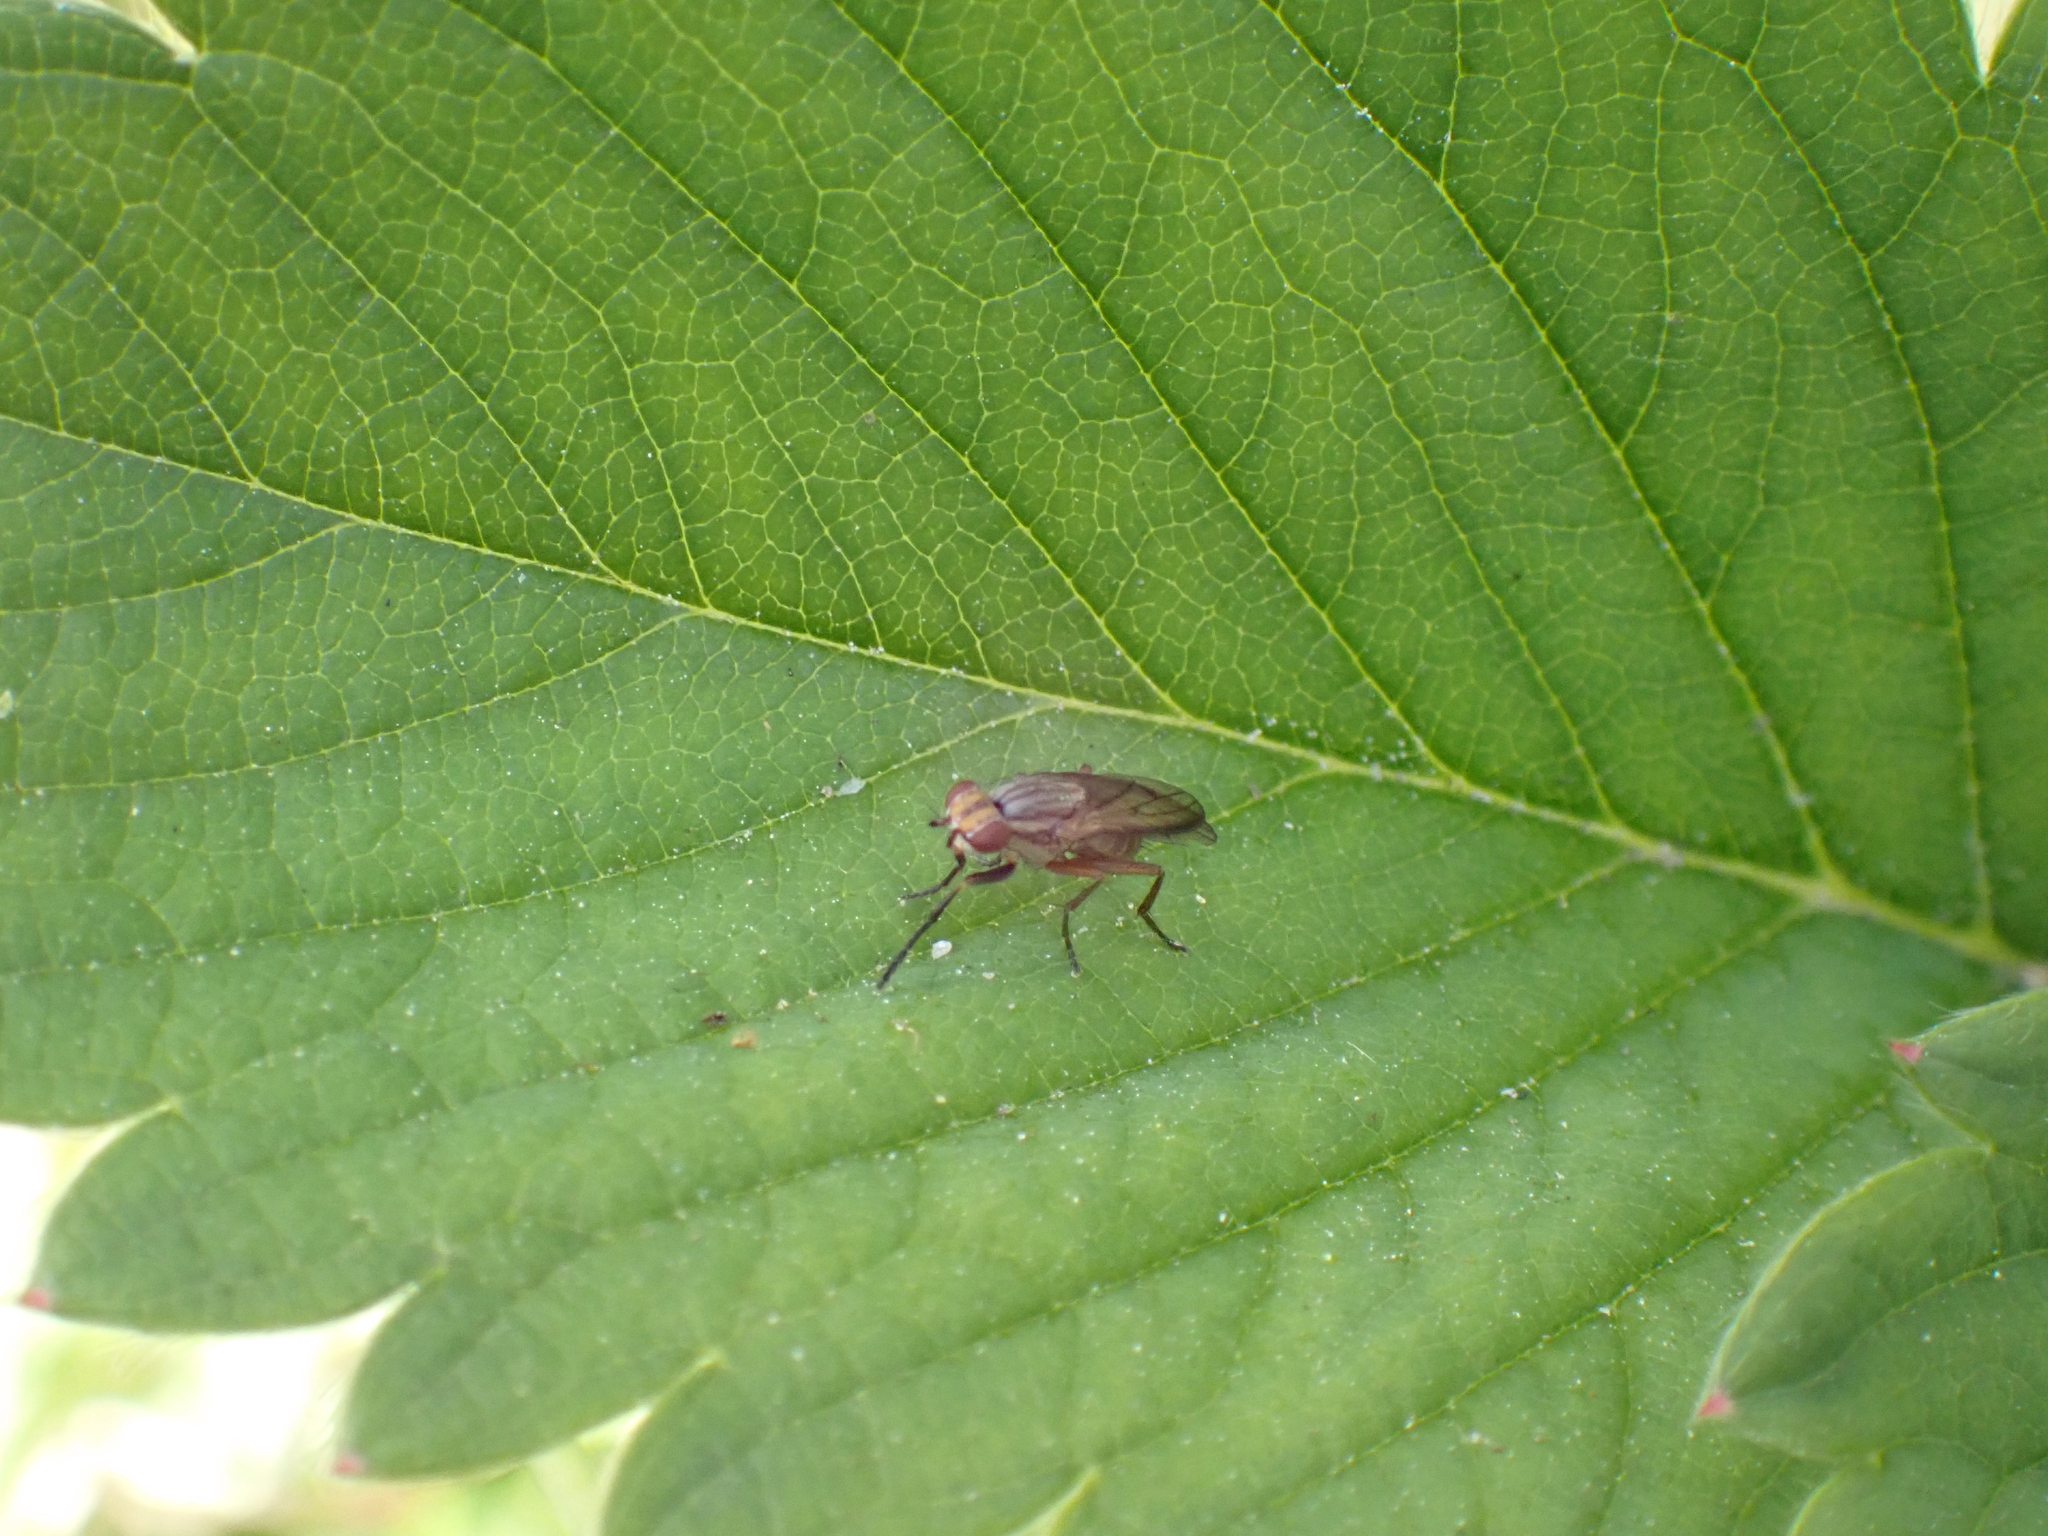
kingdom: Animalia
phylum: Arthropoda
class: Insecta
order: Diptera
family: Sciomyzidae
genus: Pherbellia
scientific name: Pherbellia cinerella
